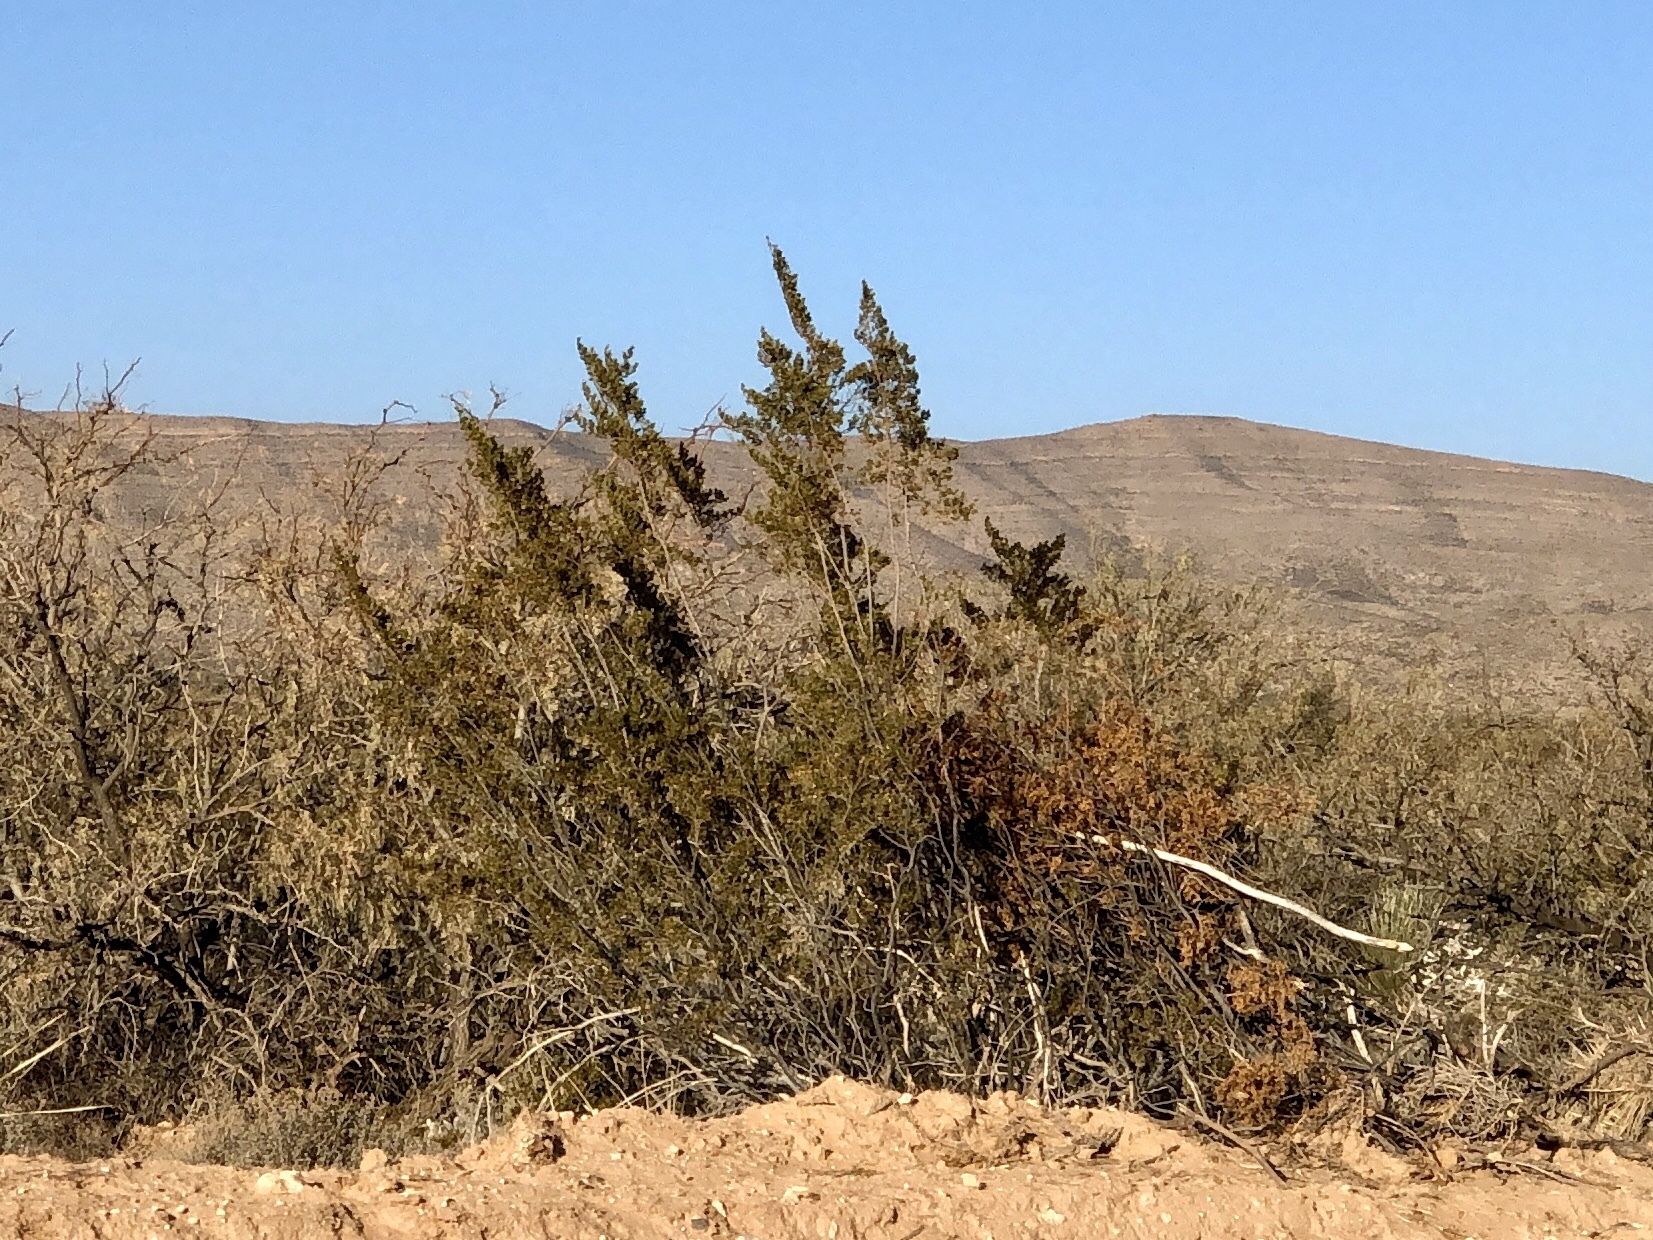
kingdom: Plantae
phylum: Tracheophyta
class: Magnoliopsida
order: Zygophyllales
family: Zygophyllaceae
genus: Larrea
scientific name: Larrea tridentata
